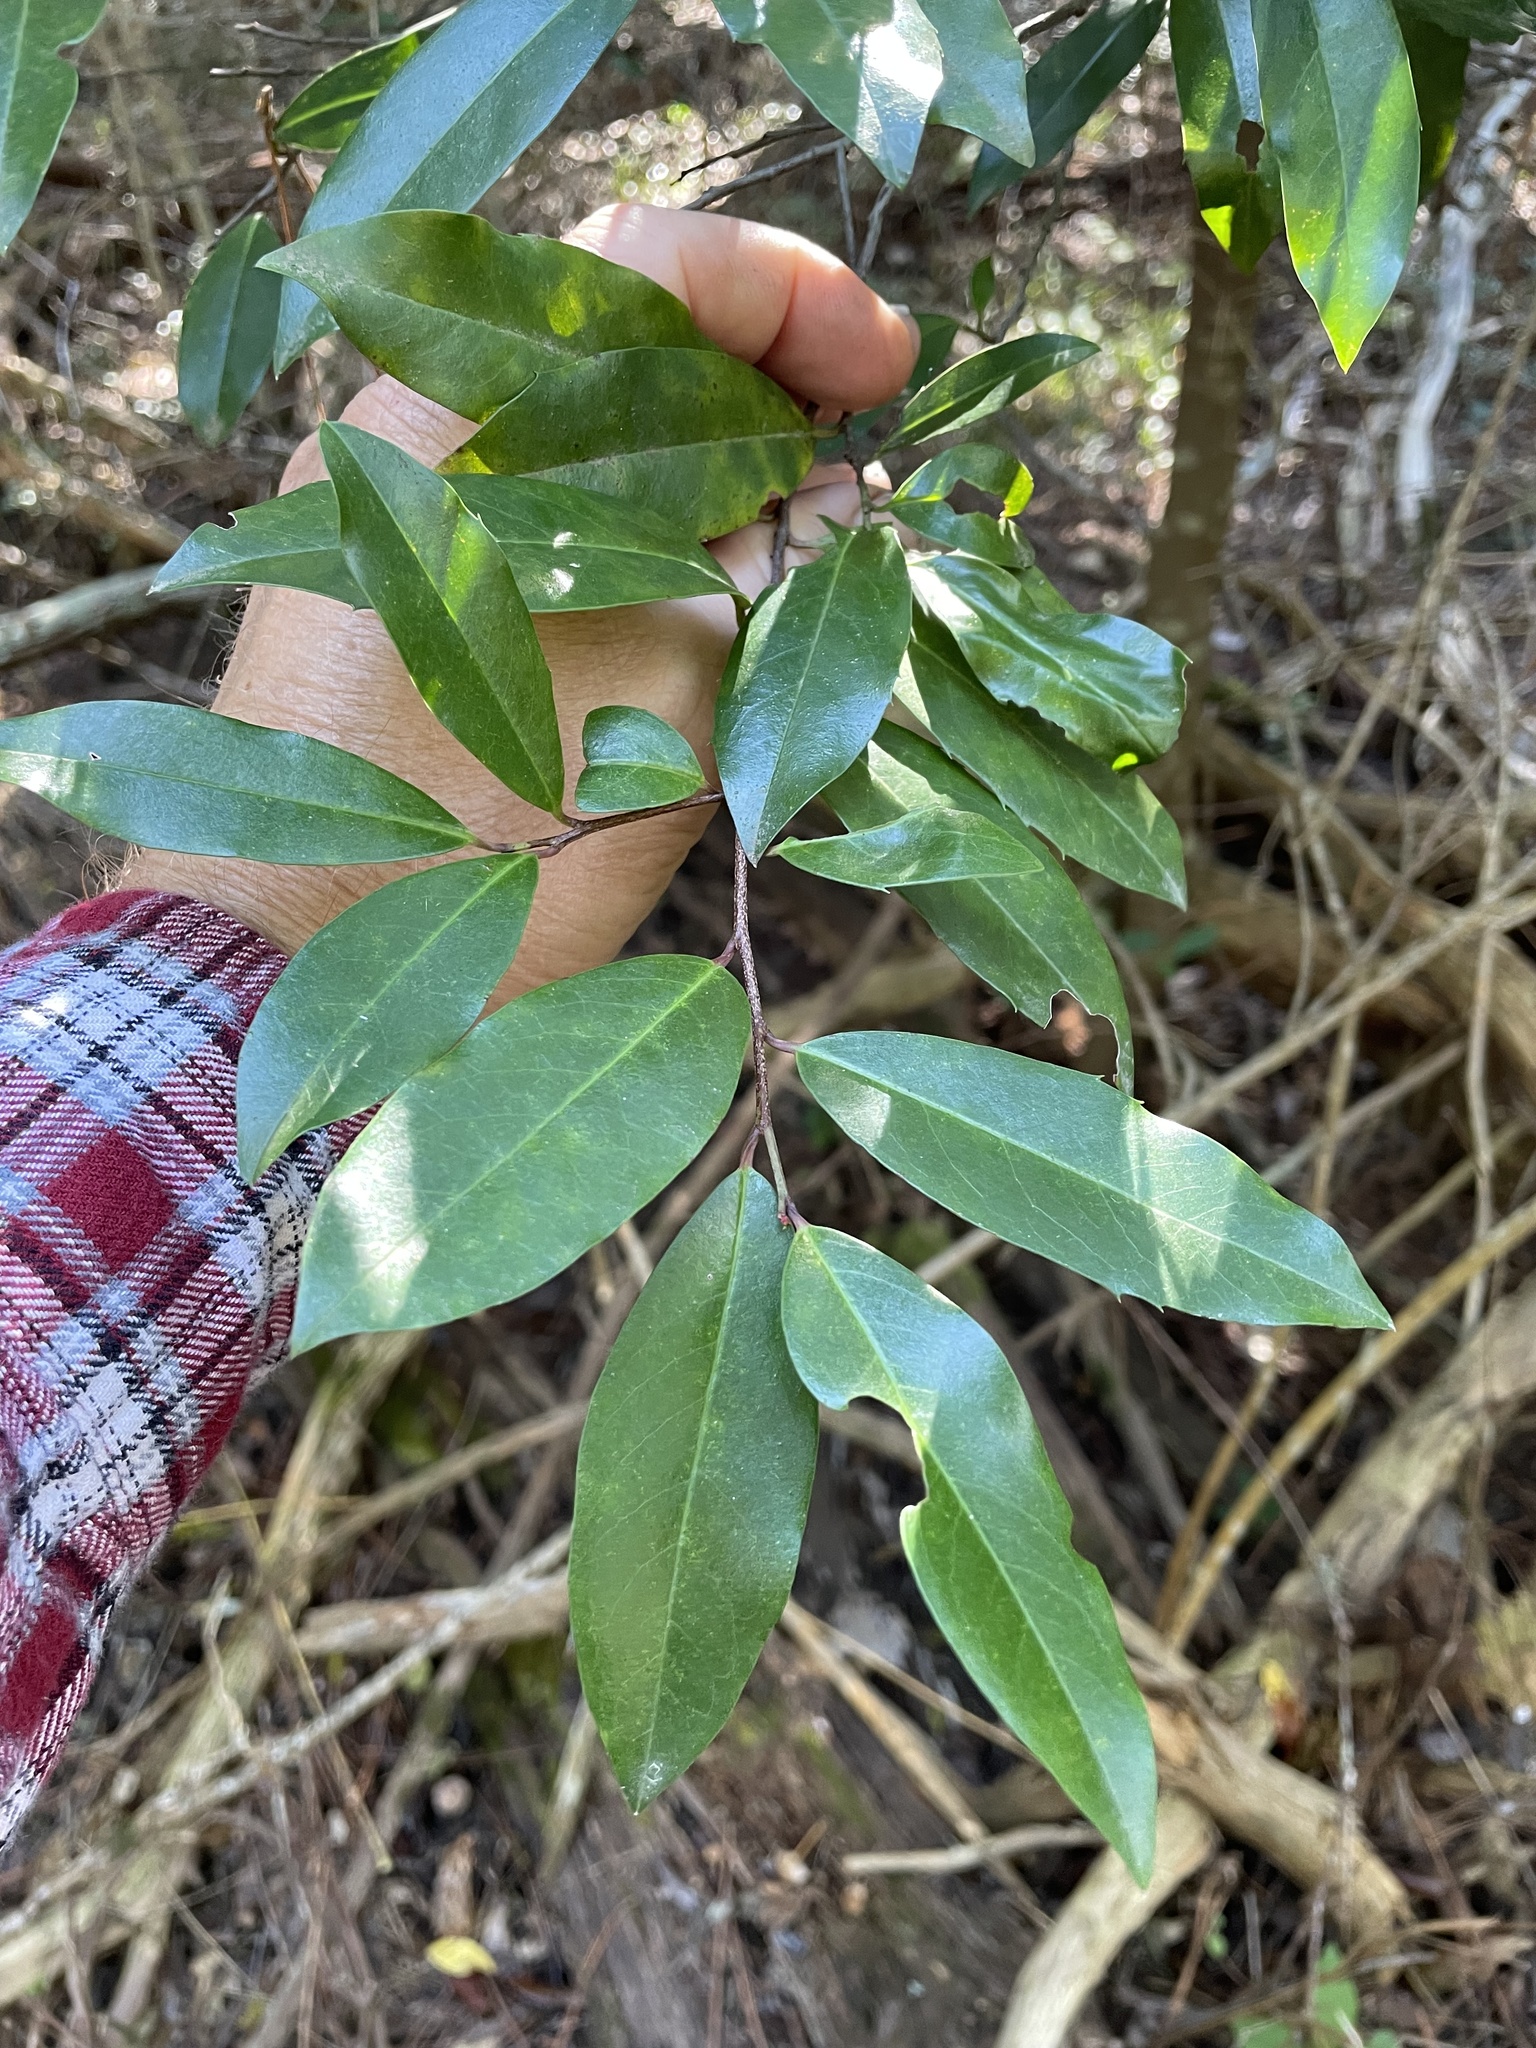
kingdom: Plantae
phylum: Tracheophyta
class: Magnoliopsida
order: Rosales
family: Rosaceae
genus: Prunus
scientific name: Prunus caroliniana
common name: Carolina laurel cherry
